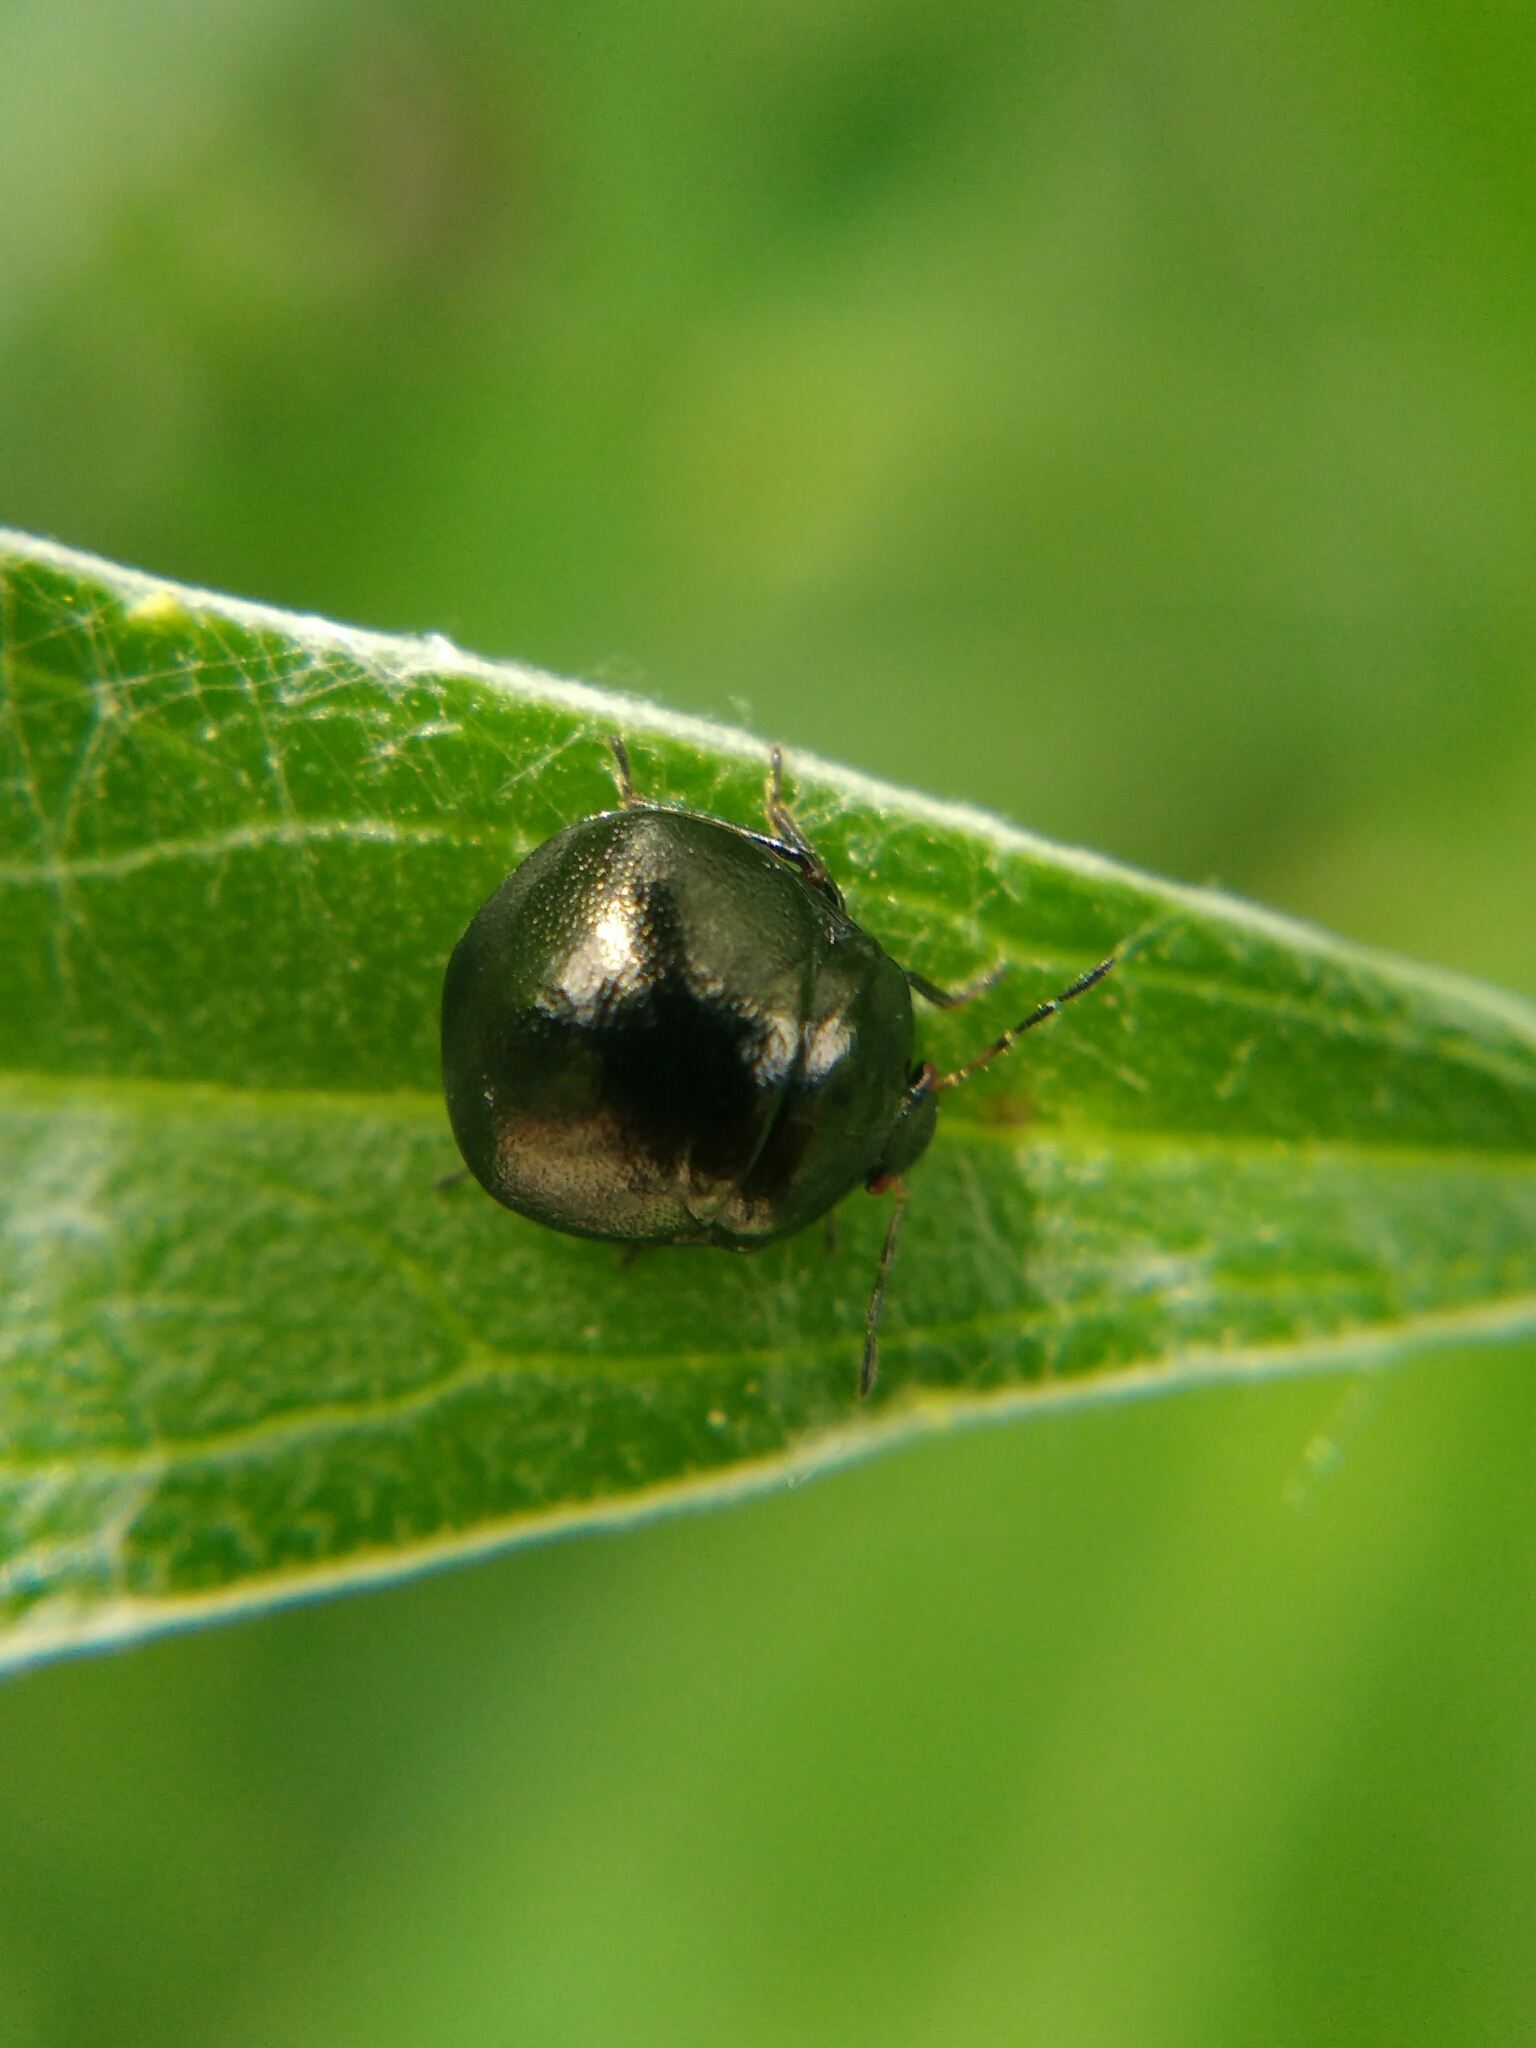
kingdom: Animalia
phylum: Arthropoda
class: Insecta
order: Hemiptera
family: Plataspidae
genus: Coptosoma
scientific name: Coptosoma scutellatum
